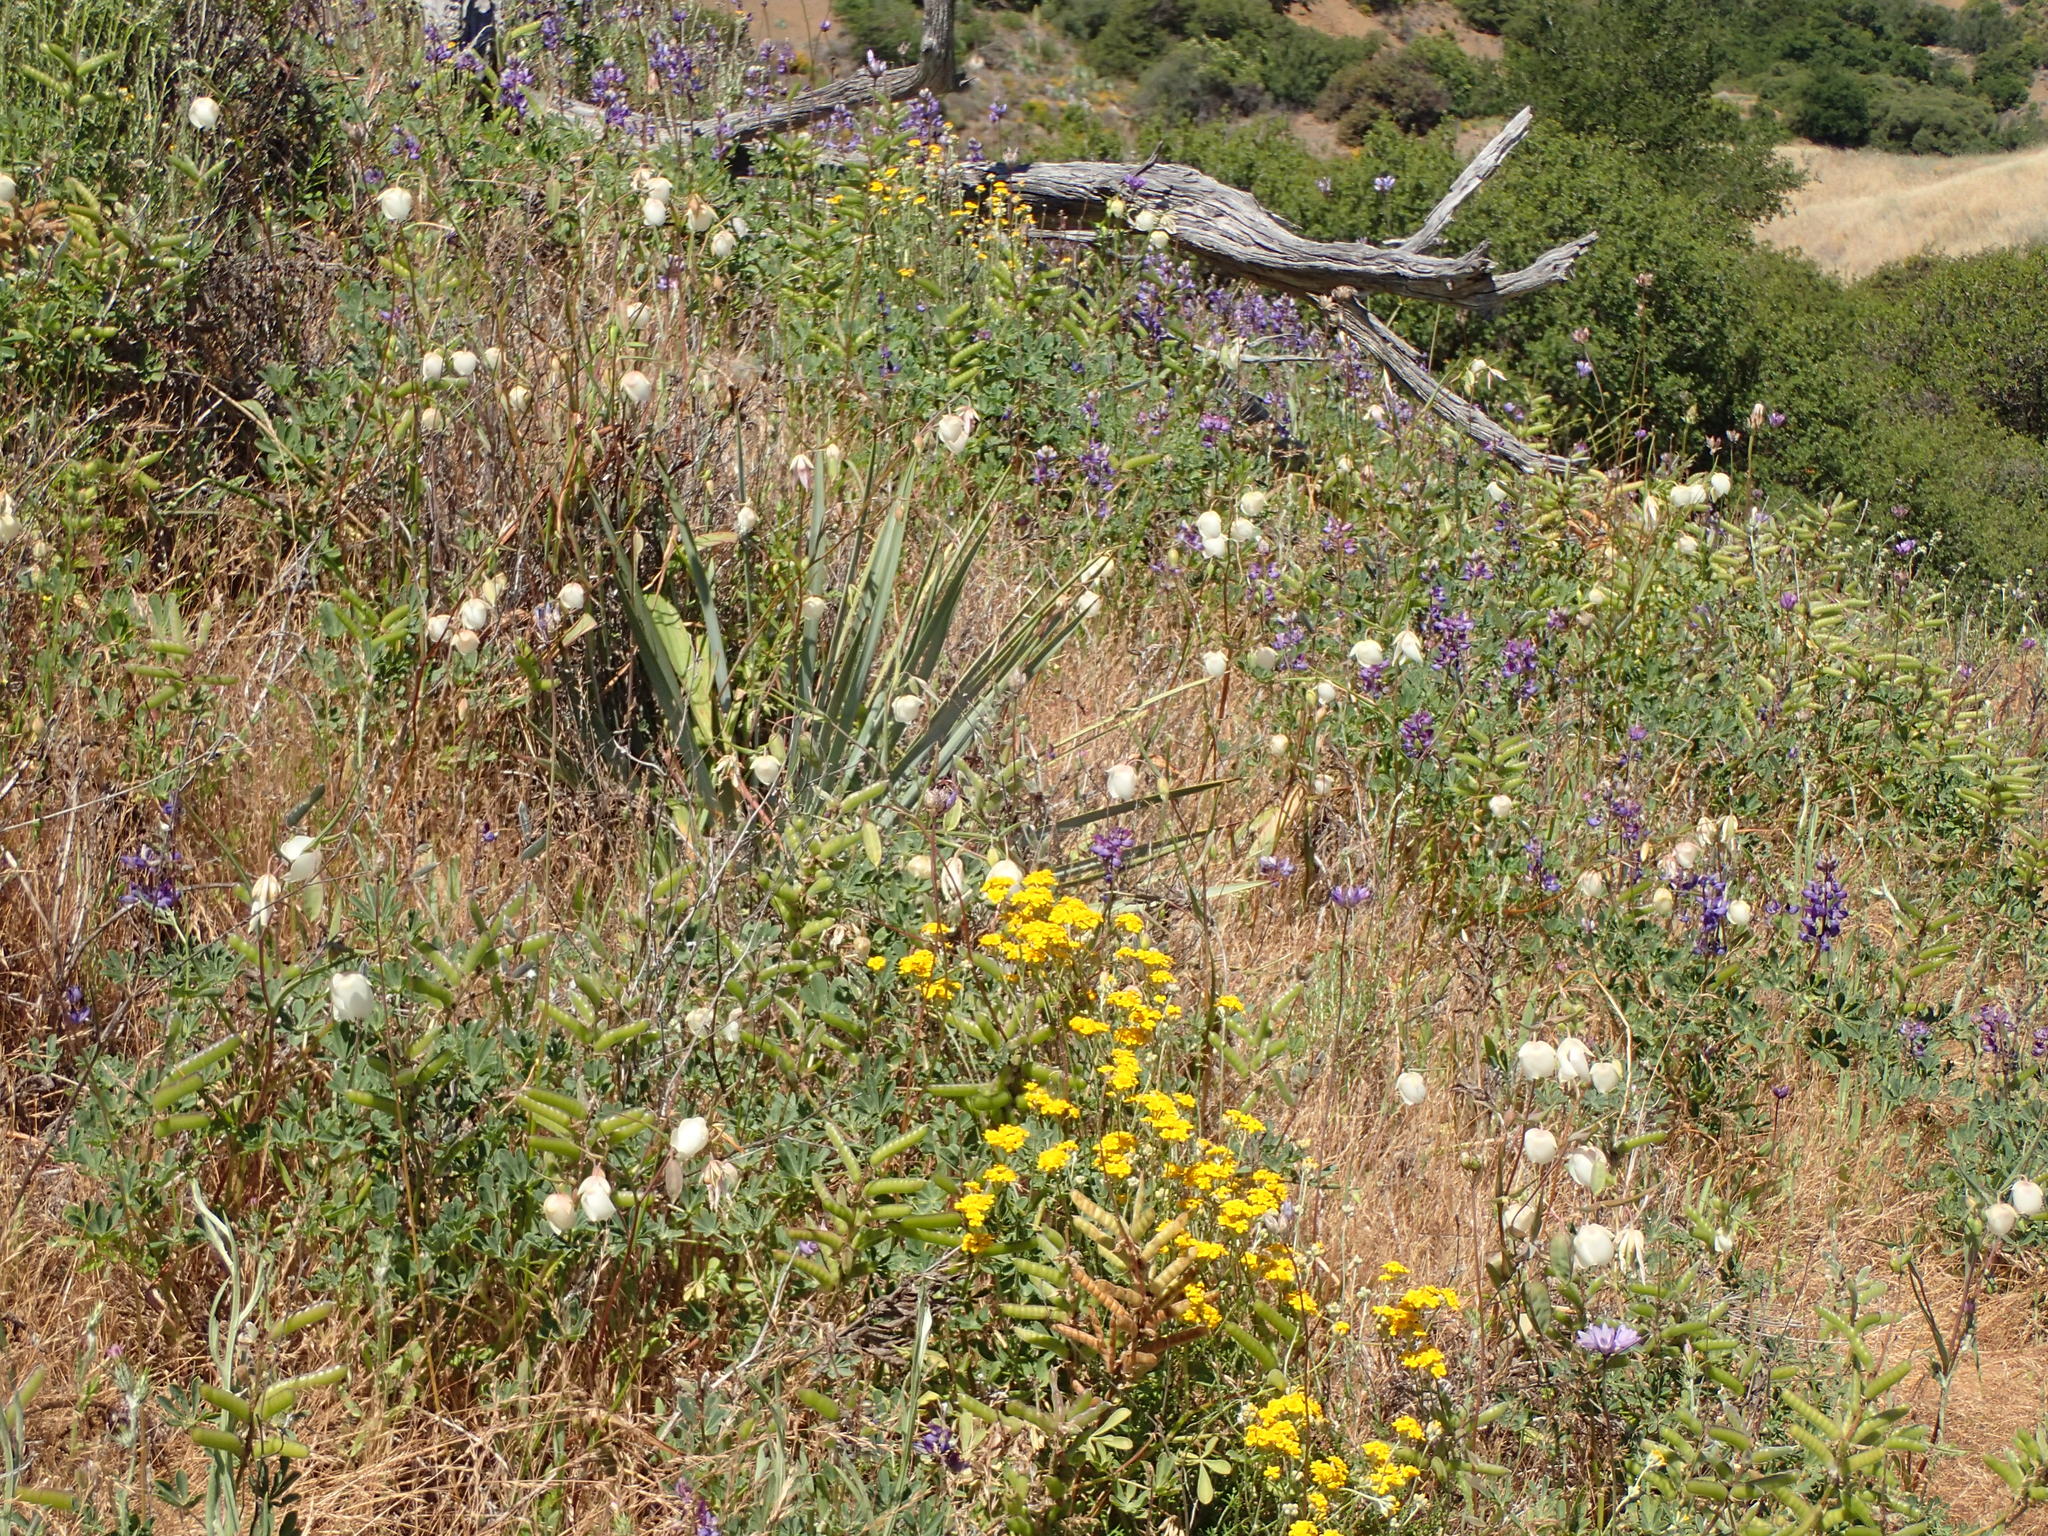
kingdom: Plantae
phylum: Tracheophyta
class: Liliopsida
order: Liliales
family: Liliaceae
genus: Calochortus
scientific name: Calochortus albus
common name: Fairy-lantern
